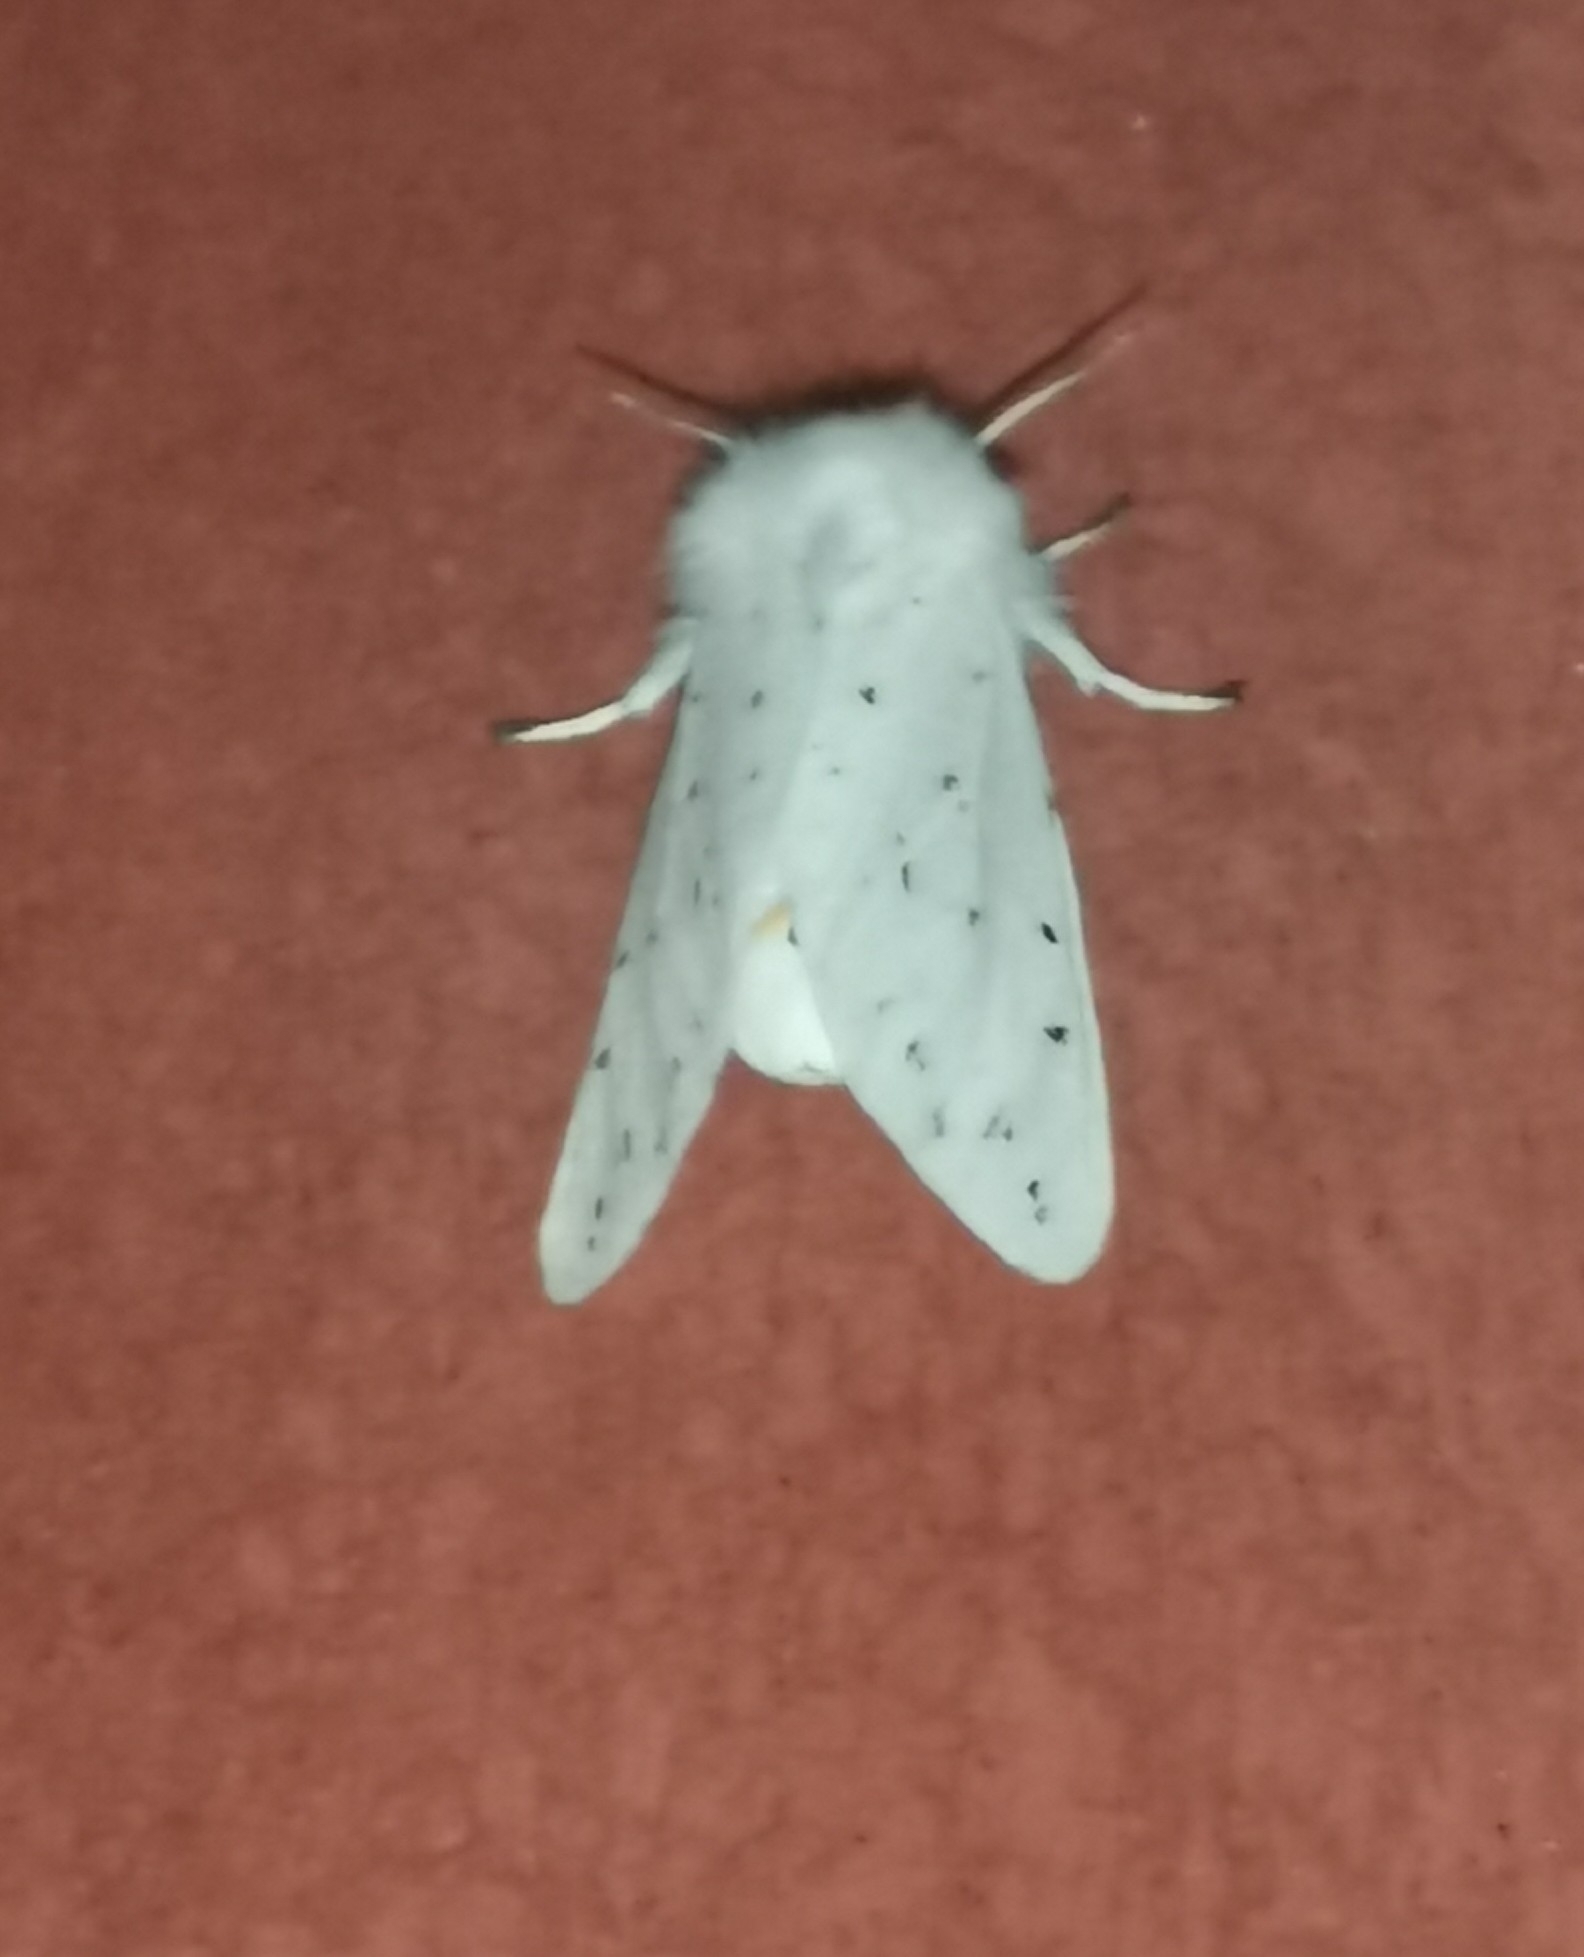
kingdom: Animalia
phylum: Arthropoda
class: Insecta
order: Lepidoptera
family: Erebidae
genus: Spilosoma
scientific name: Spilosoma lubricipeda
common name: White ermine
